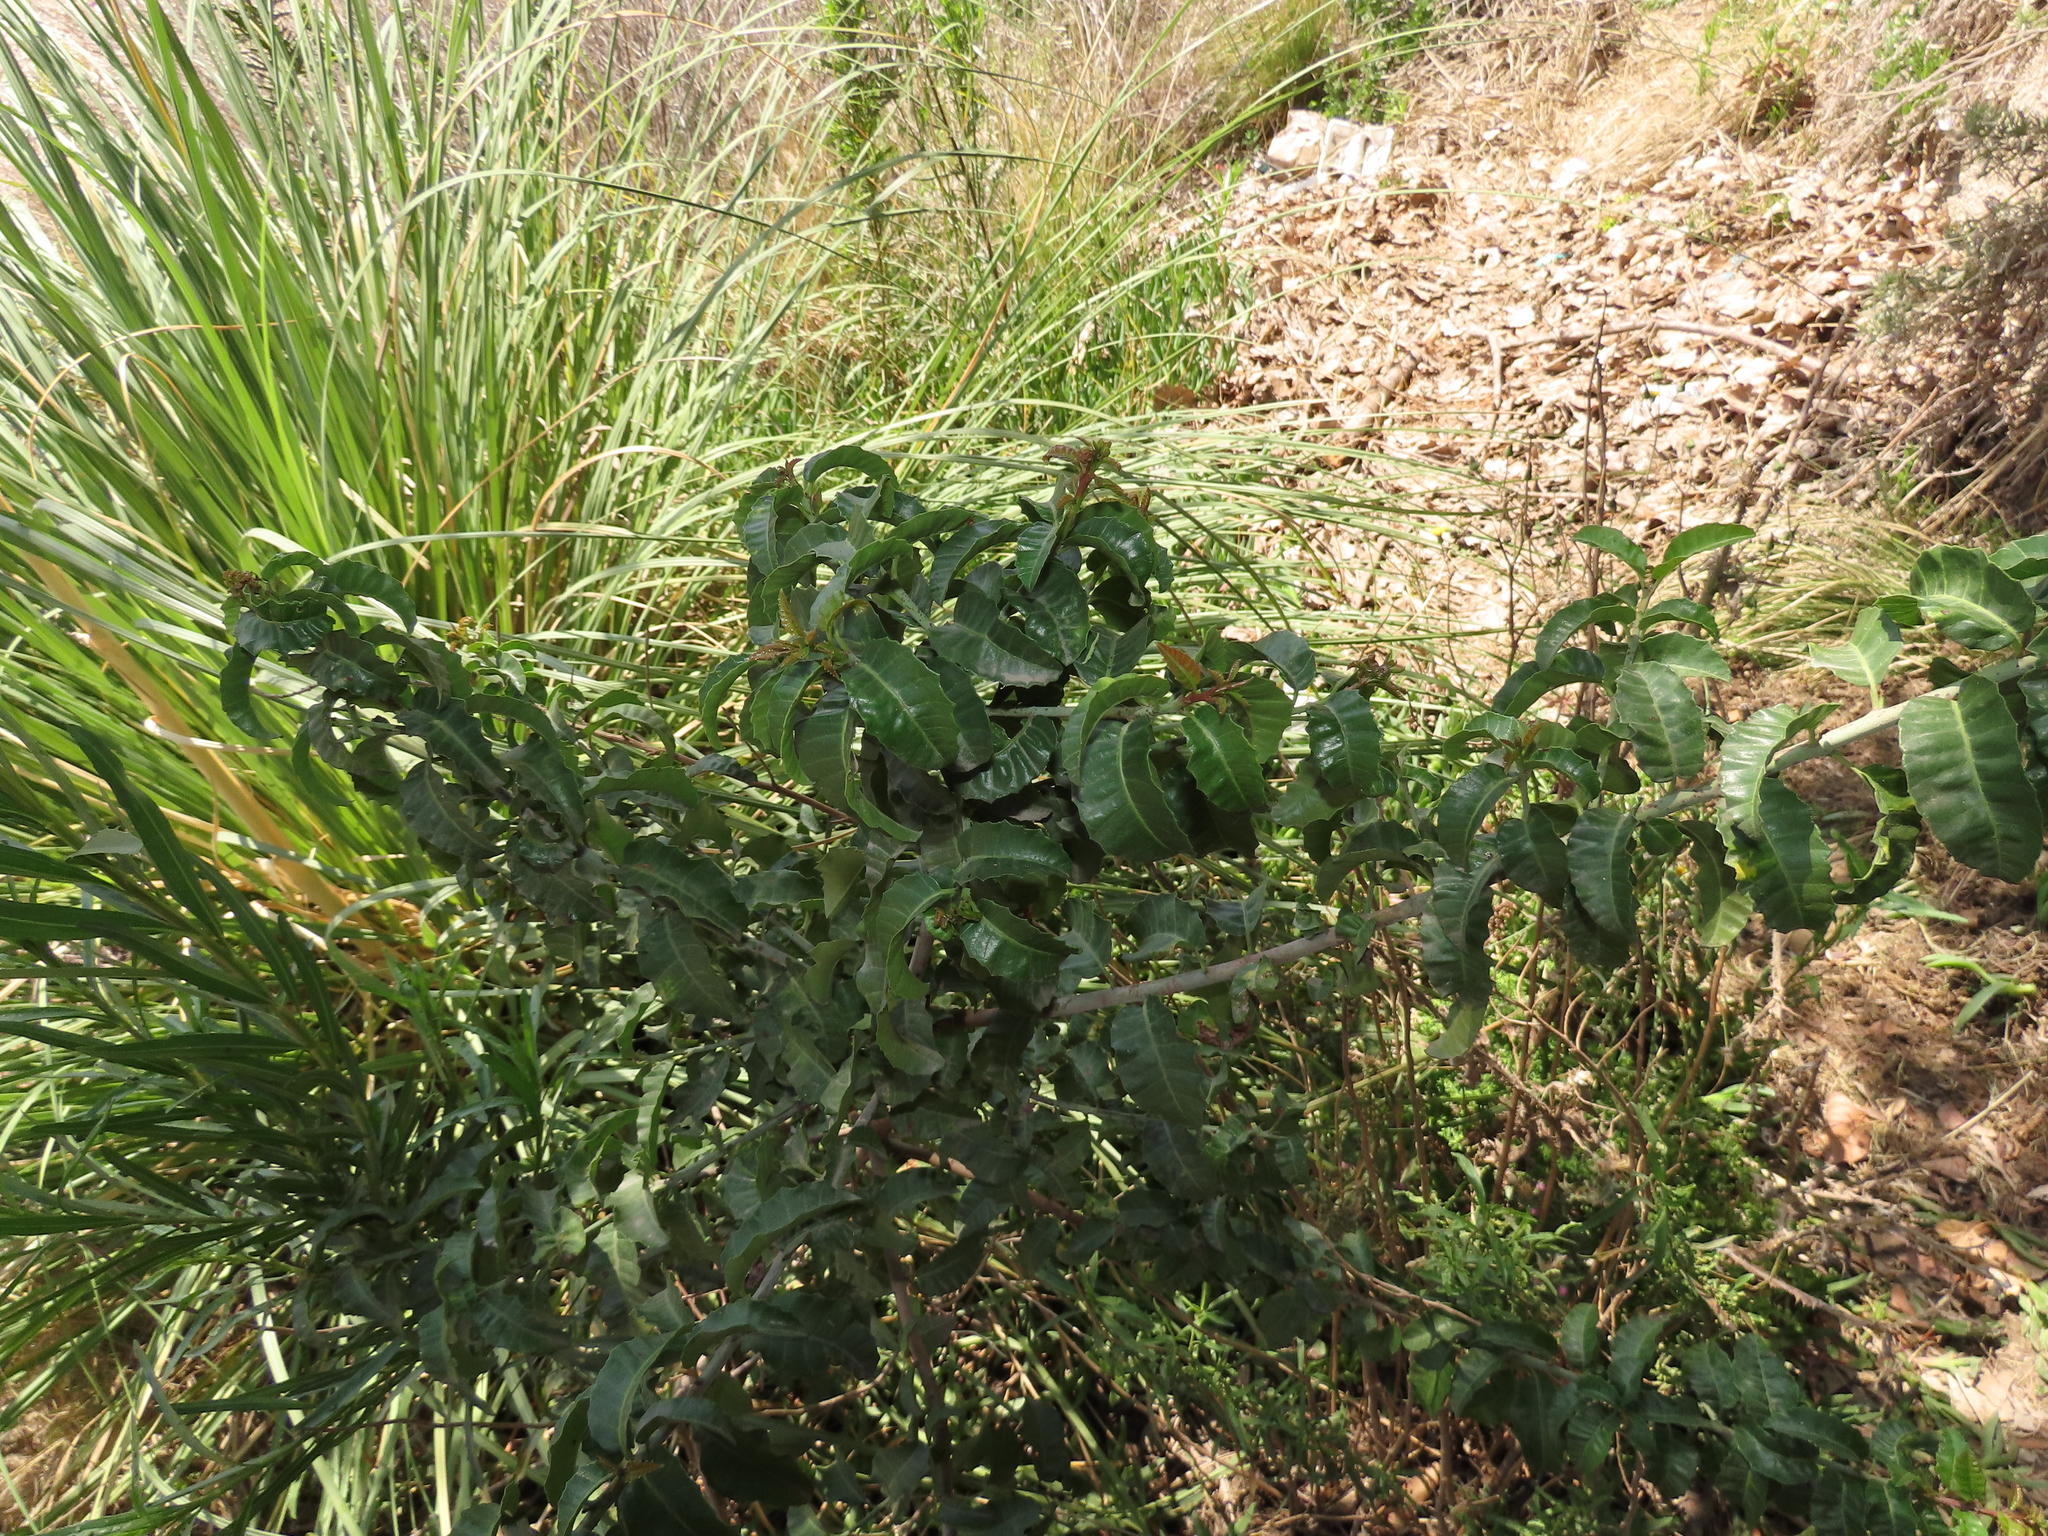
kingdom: Plantae
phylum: Tracheophyta
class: Magnoliopsida
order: Sapindales
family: Anacardiaceae
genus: Schinus
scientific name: Schinus latifolia
